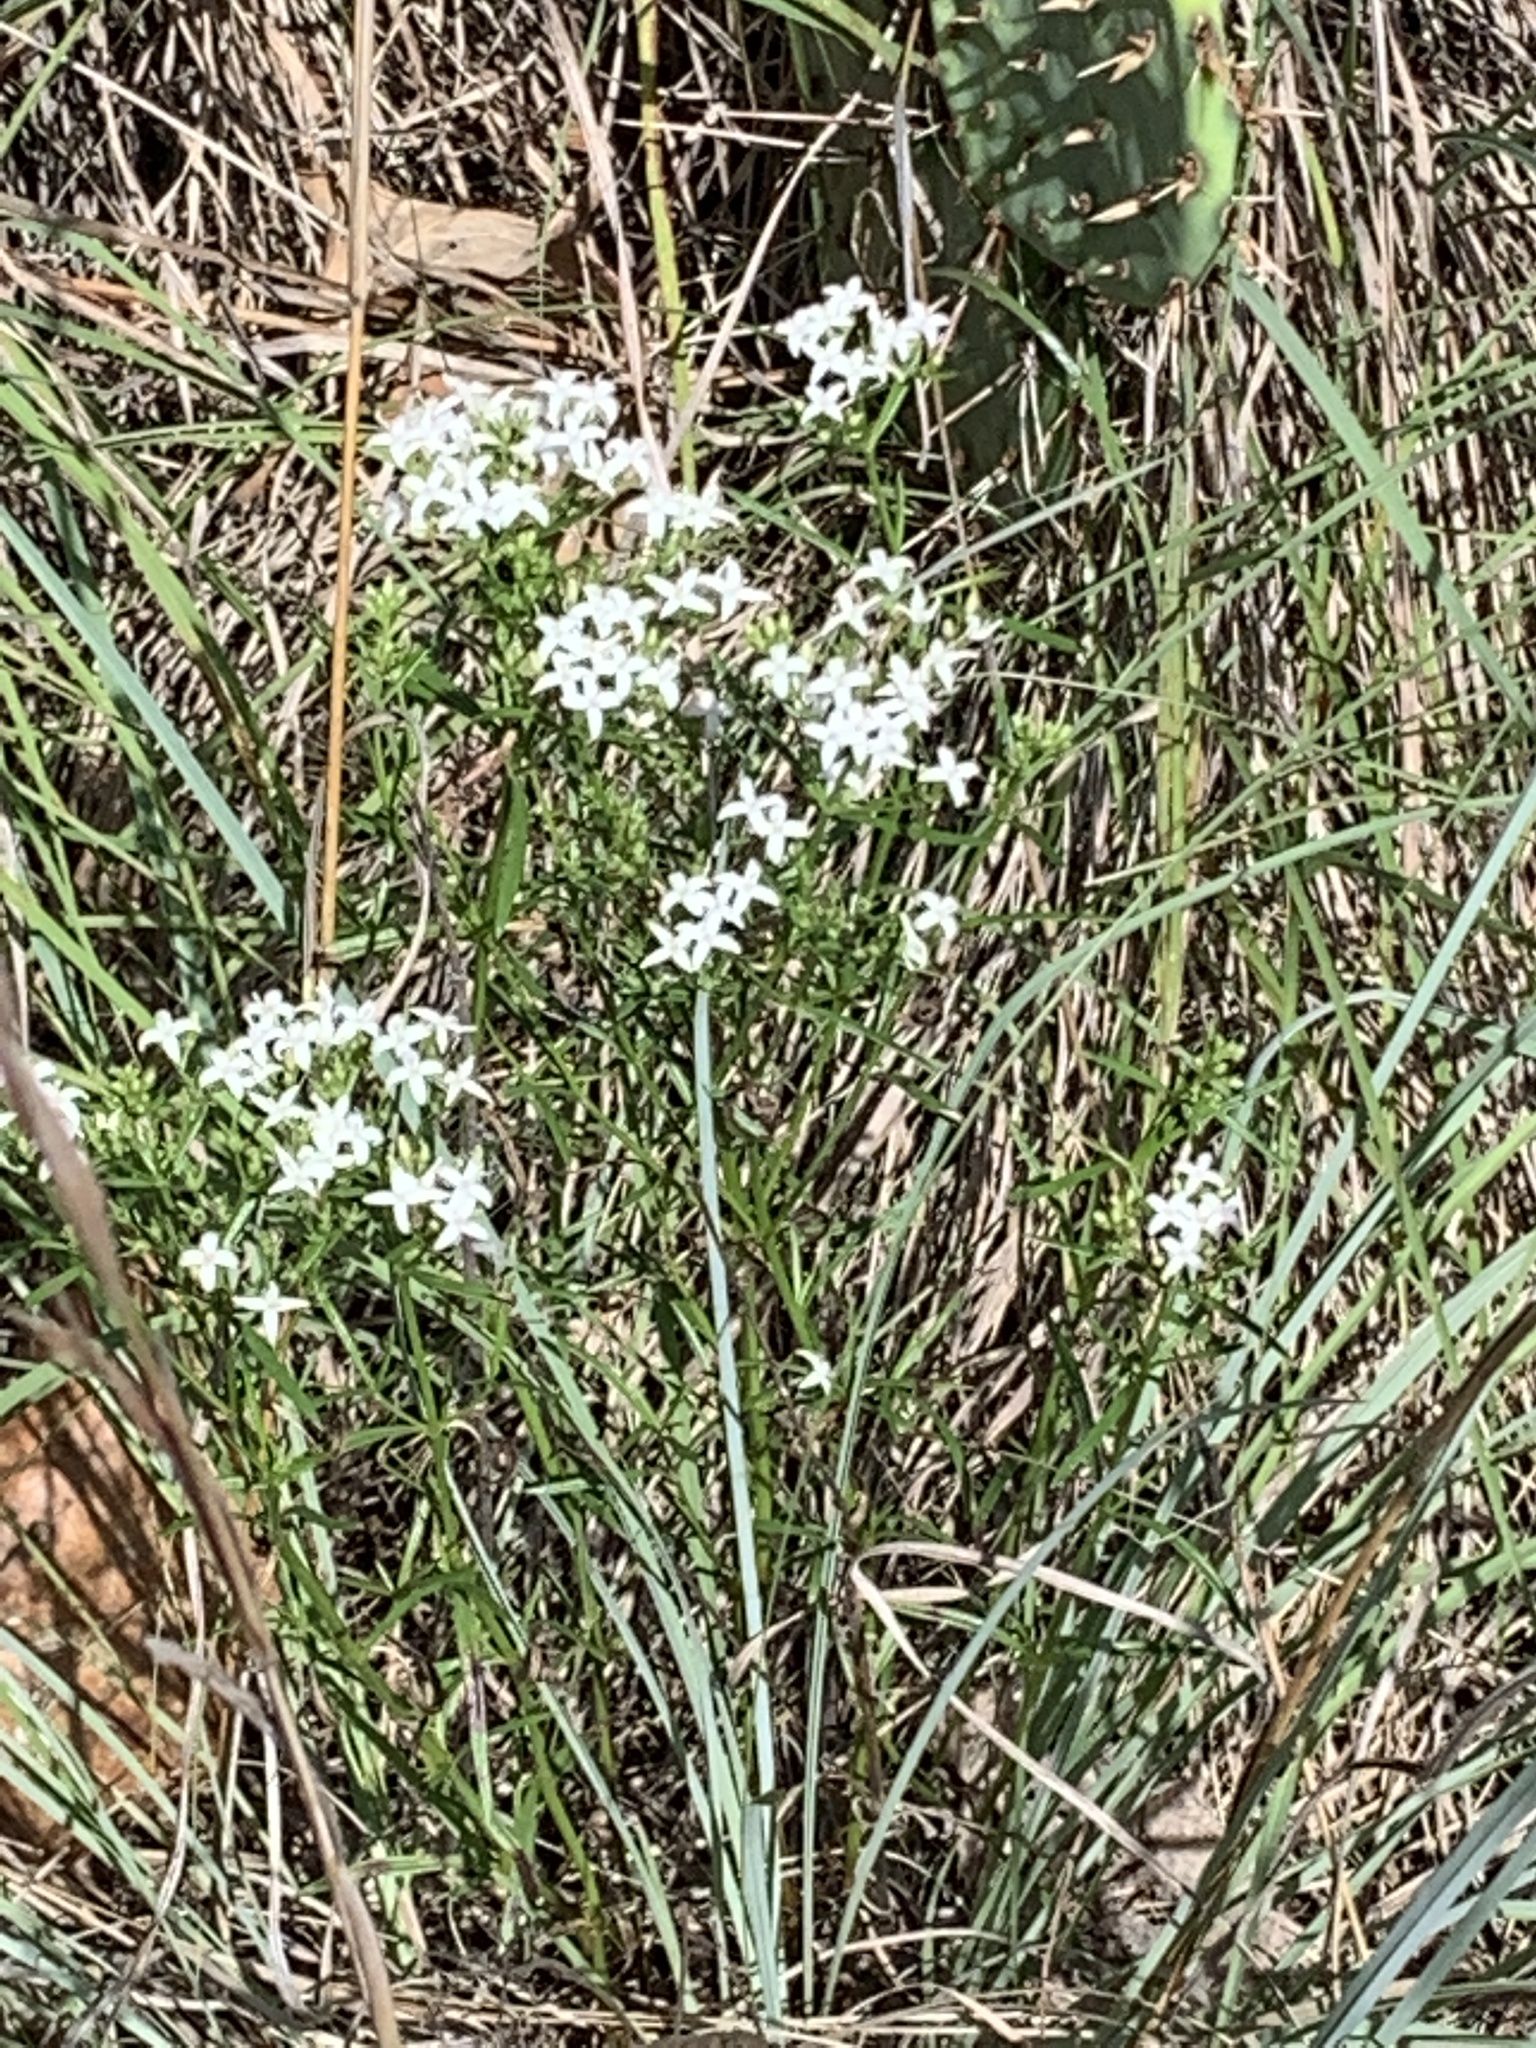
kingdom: Plantae
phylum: Tracheophyta
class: Magnoliopsida
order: Gentianales
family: Rubiaceae
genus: Stenaria
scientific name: Stenaria nigricans
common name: Diamondflowers
